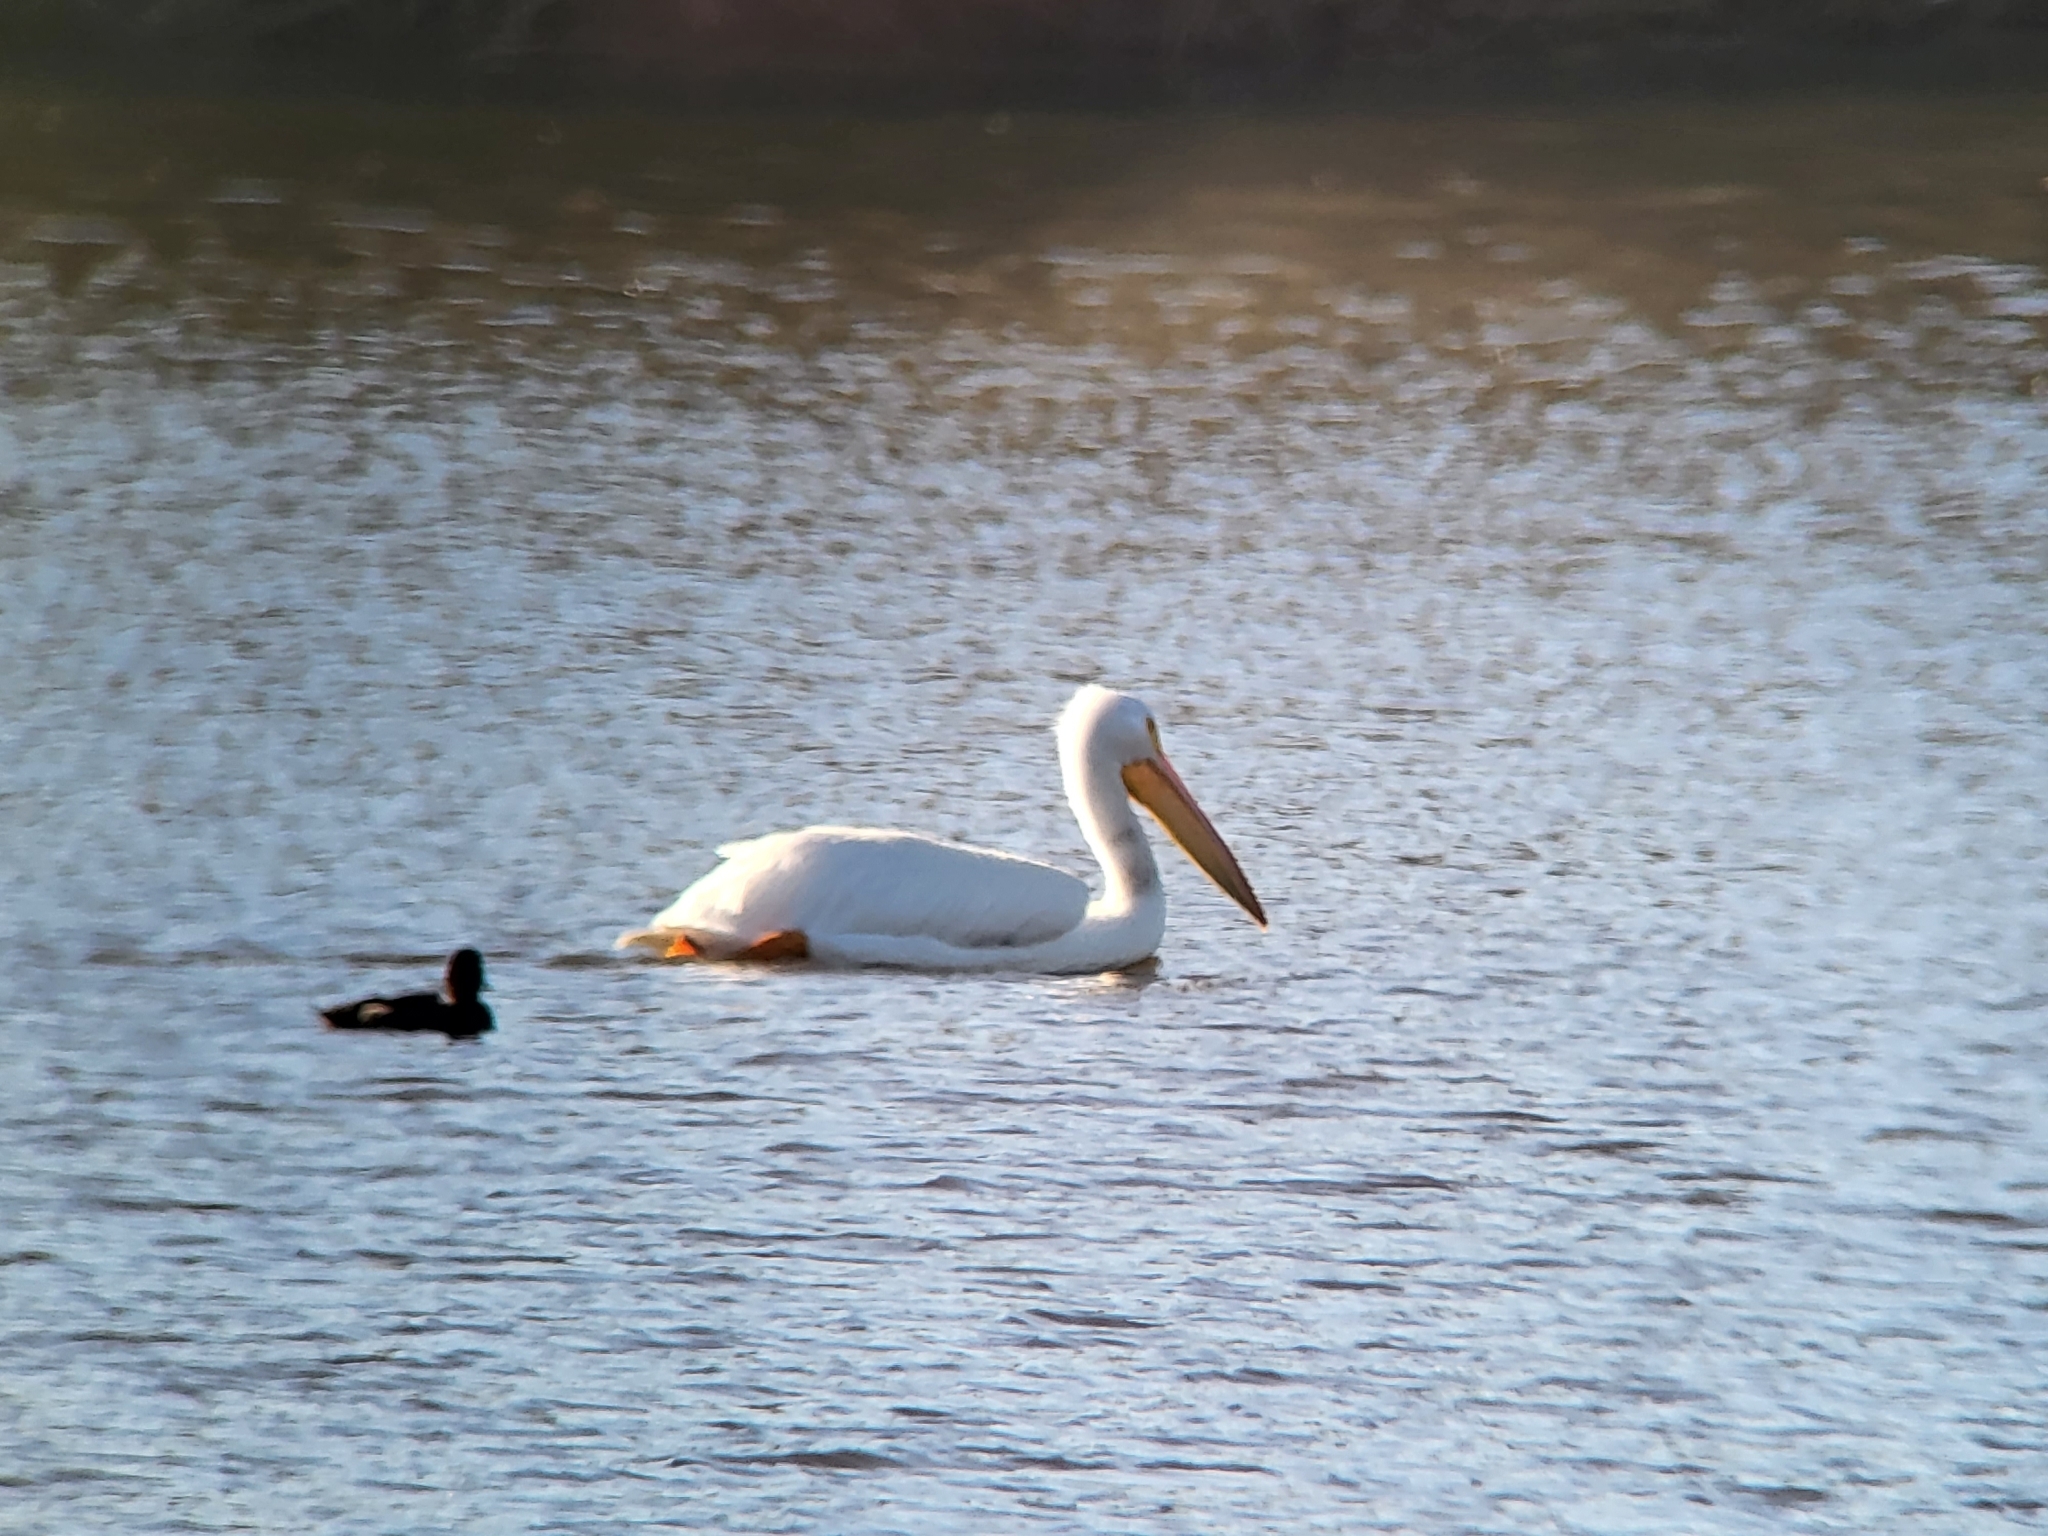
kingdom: Animalia
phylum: Chordata
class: Aves
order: Pelecaniformes
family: Pelecanidae
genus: Pelecanus
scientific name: Pelecanus erythrorhynchos
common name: American white pelican
